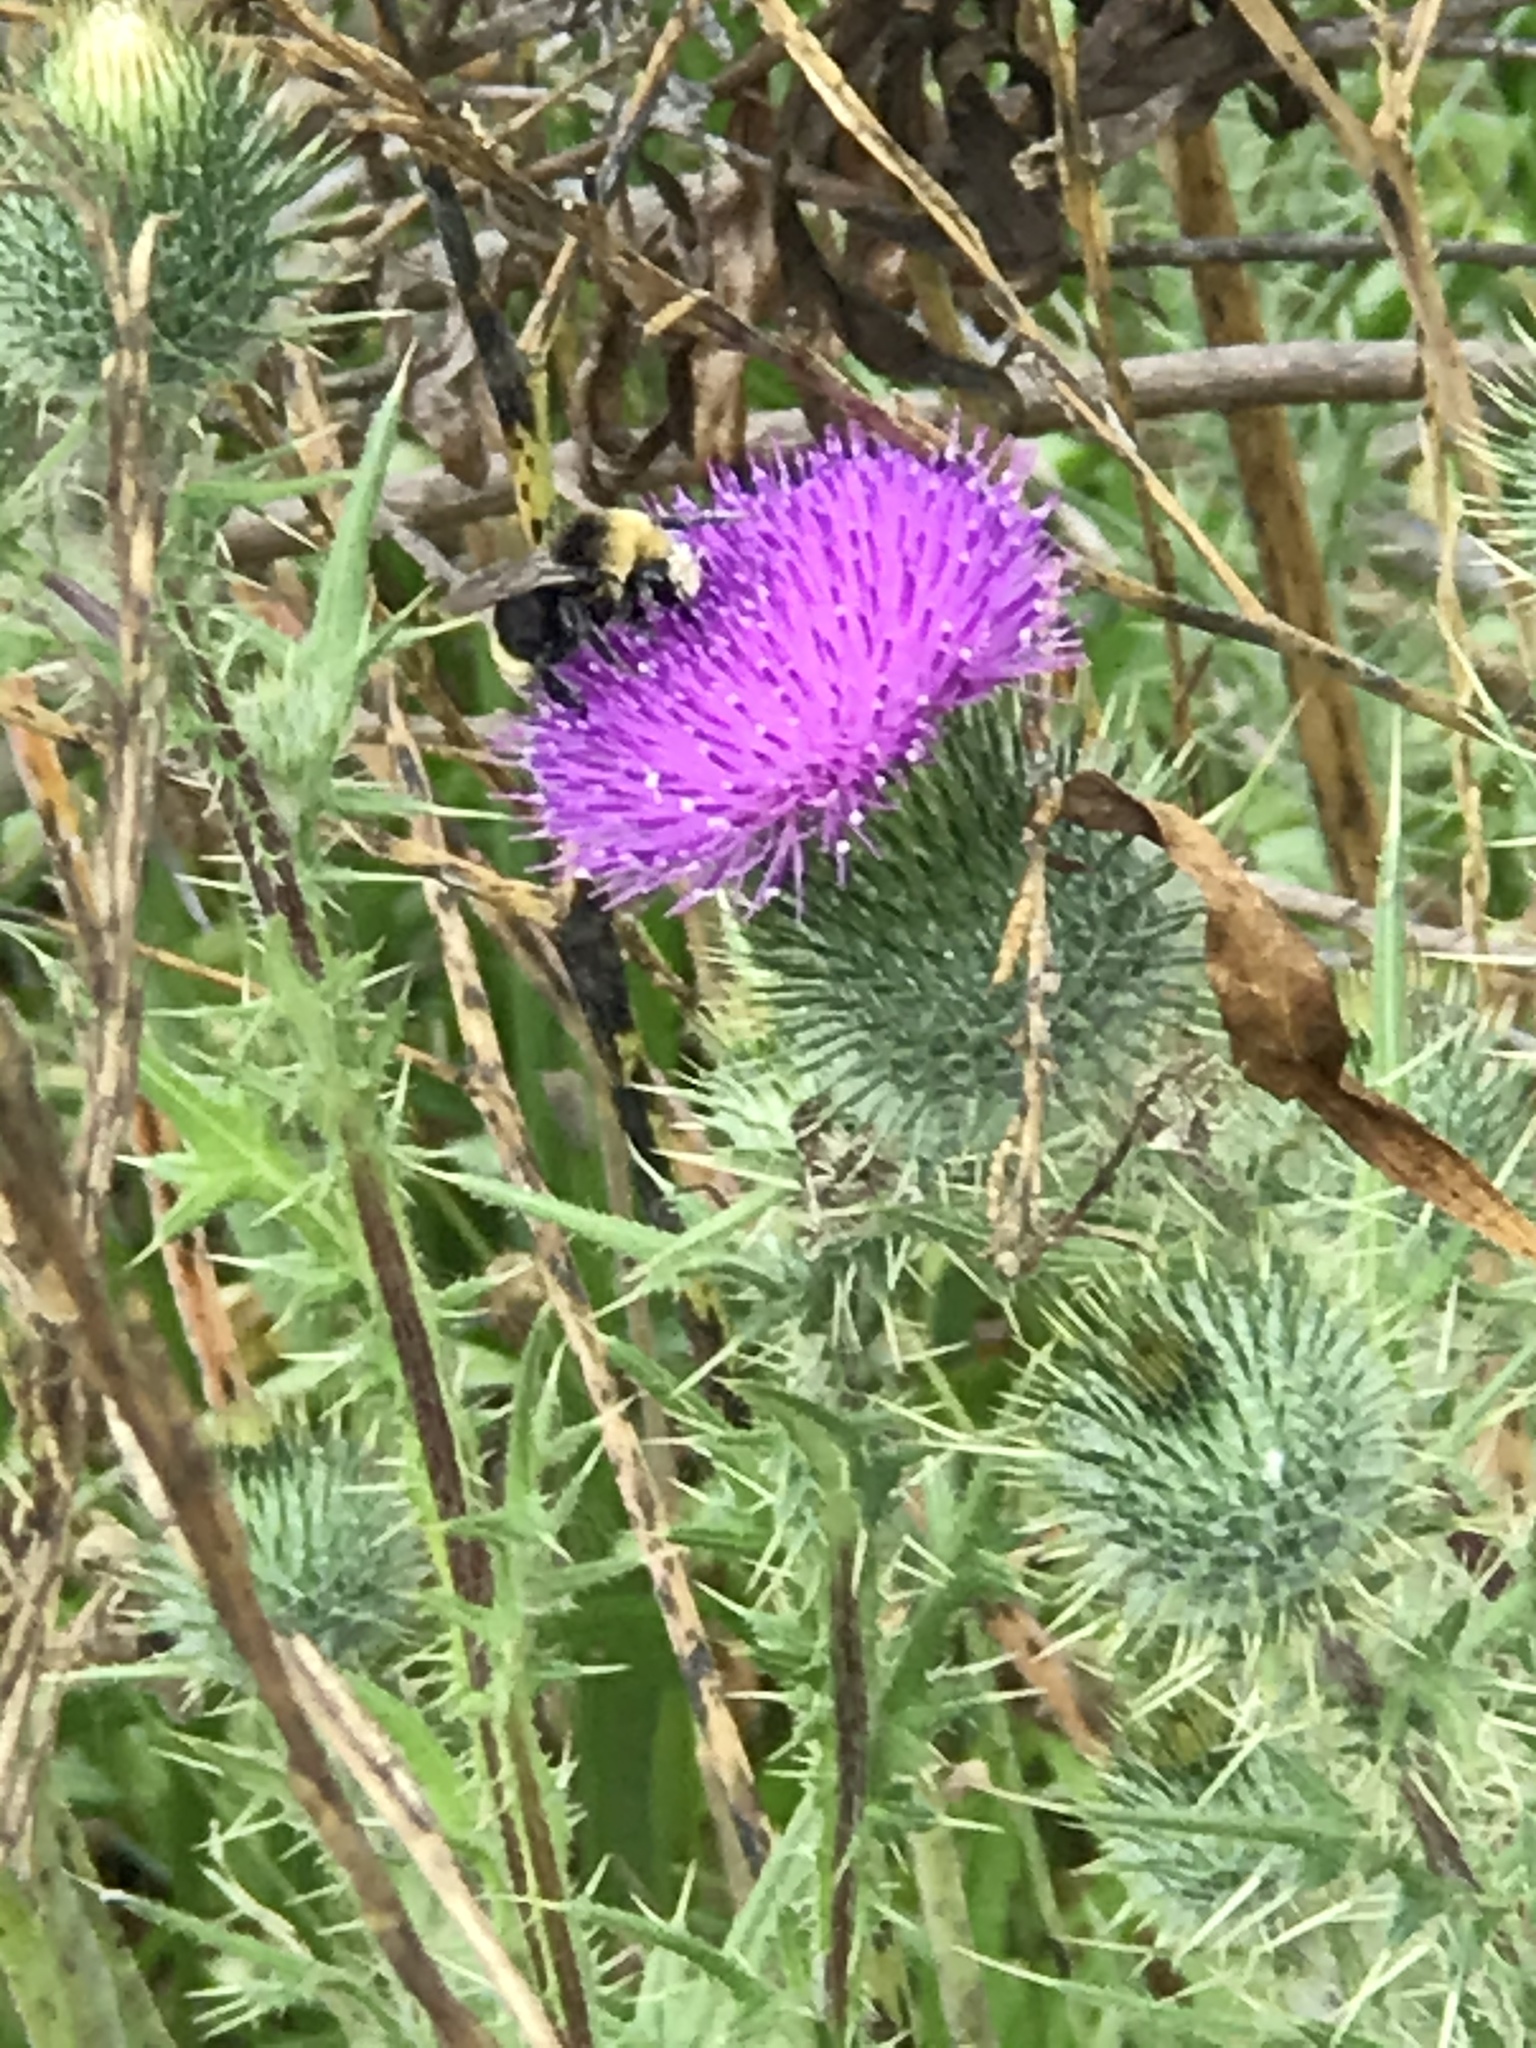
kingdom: Animalia
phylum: Arthropoda
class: Insecta
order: Hymenoptera
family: Apidae
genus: Bombus
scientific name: Bombus vosnesenskii
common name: Vosnesensky bumble bee
